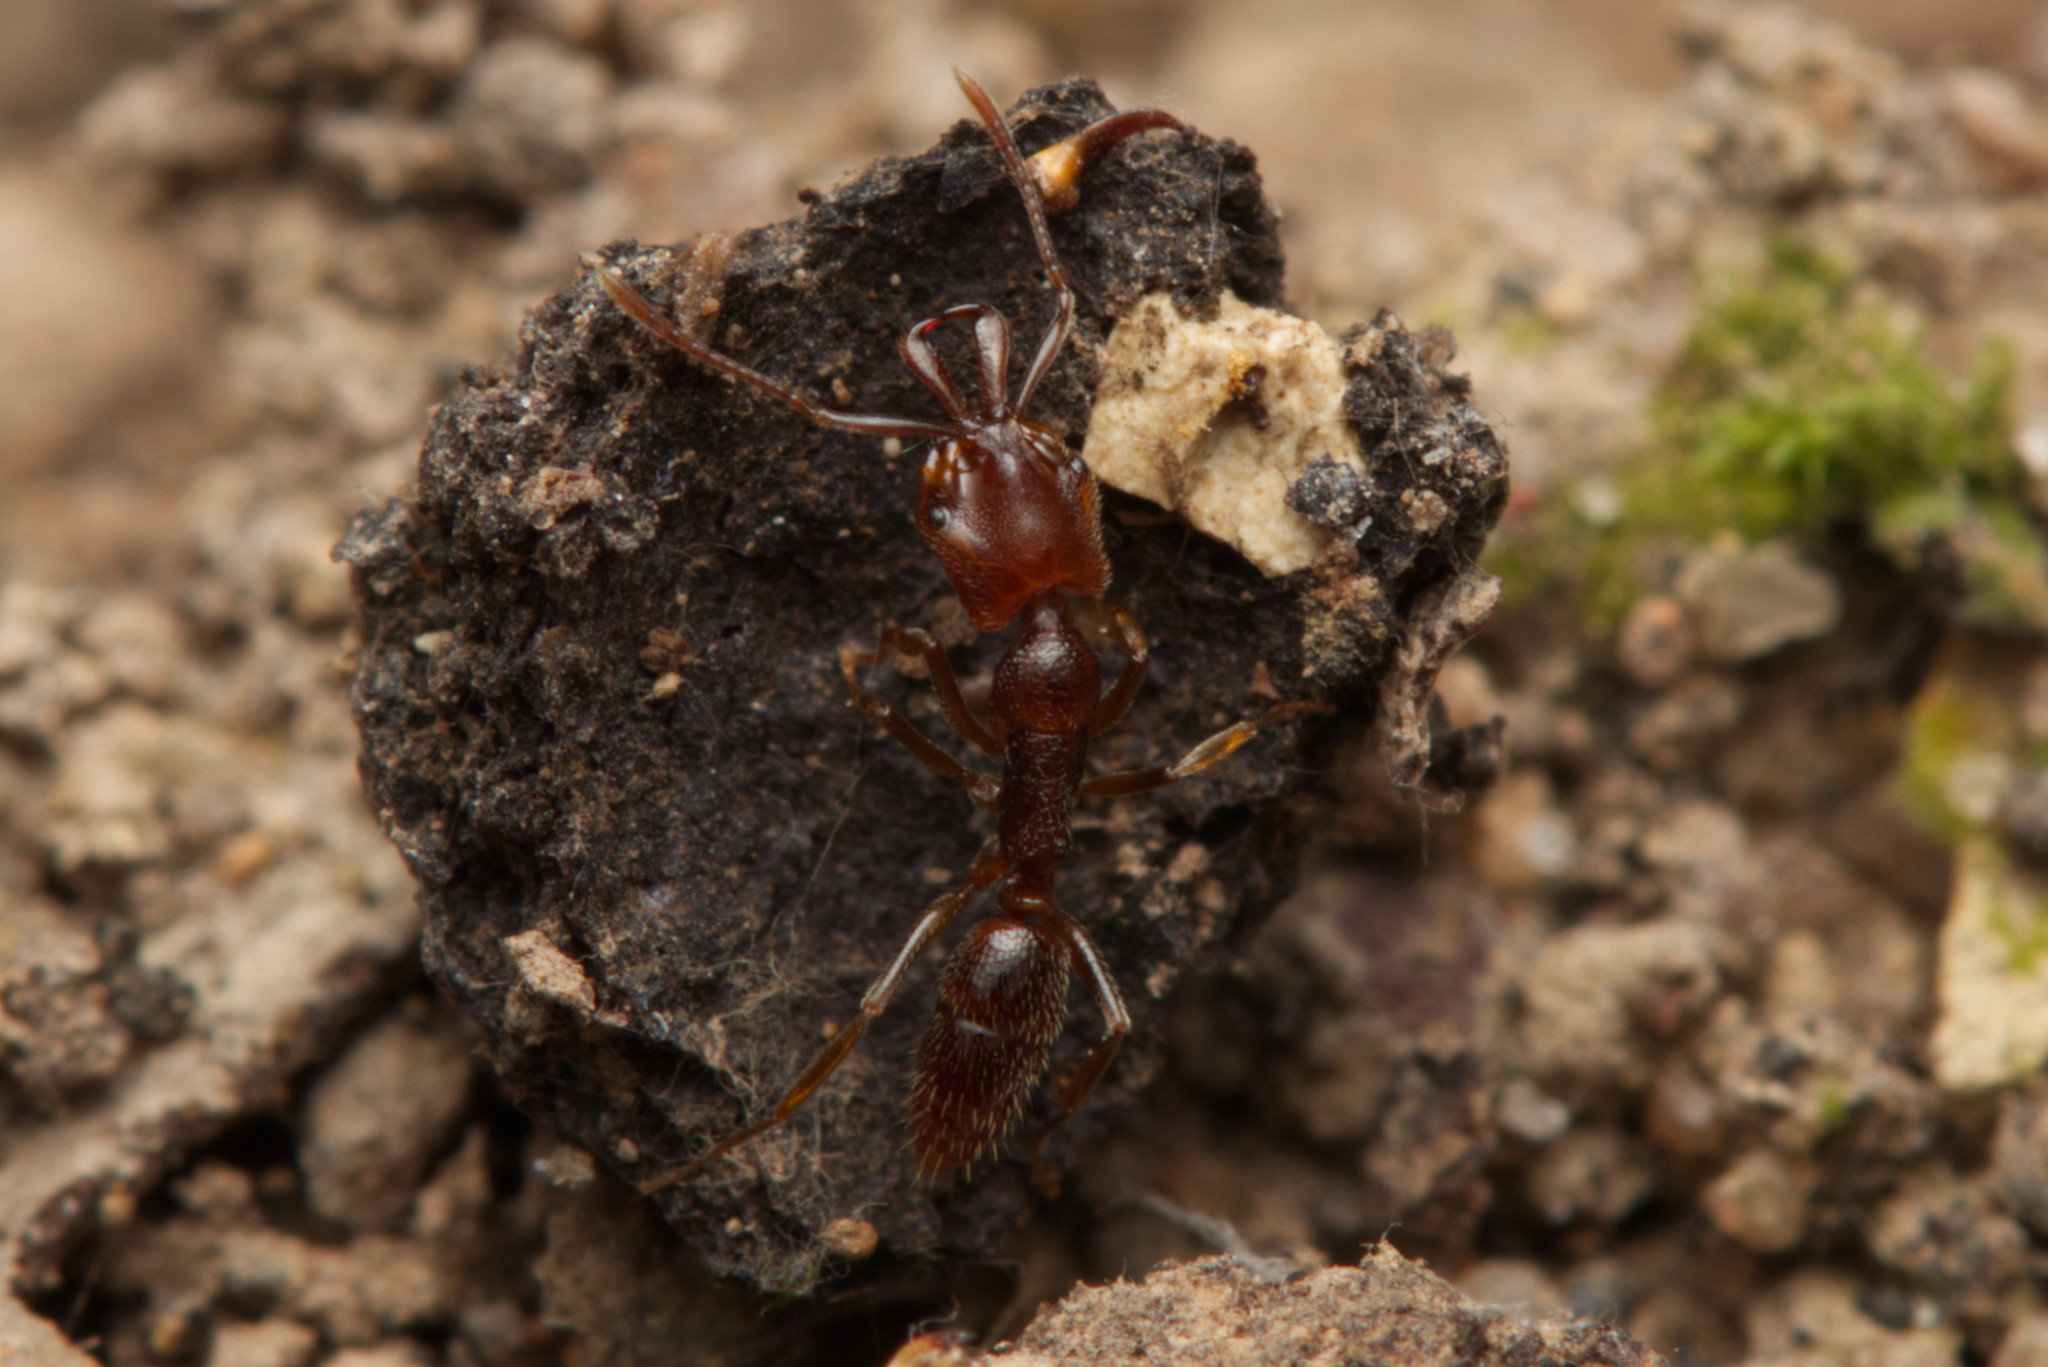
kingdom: Animalia
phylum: Arthropoda
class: Insecta
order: Hymenoptera
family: Formicidae
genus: Anochetus
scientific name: Anochetus graeffei
